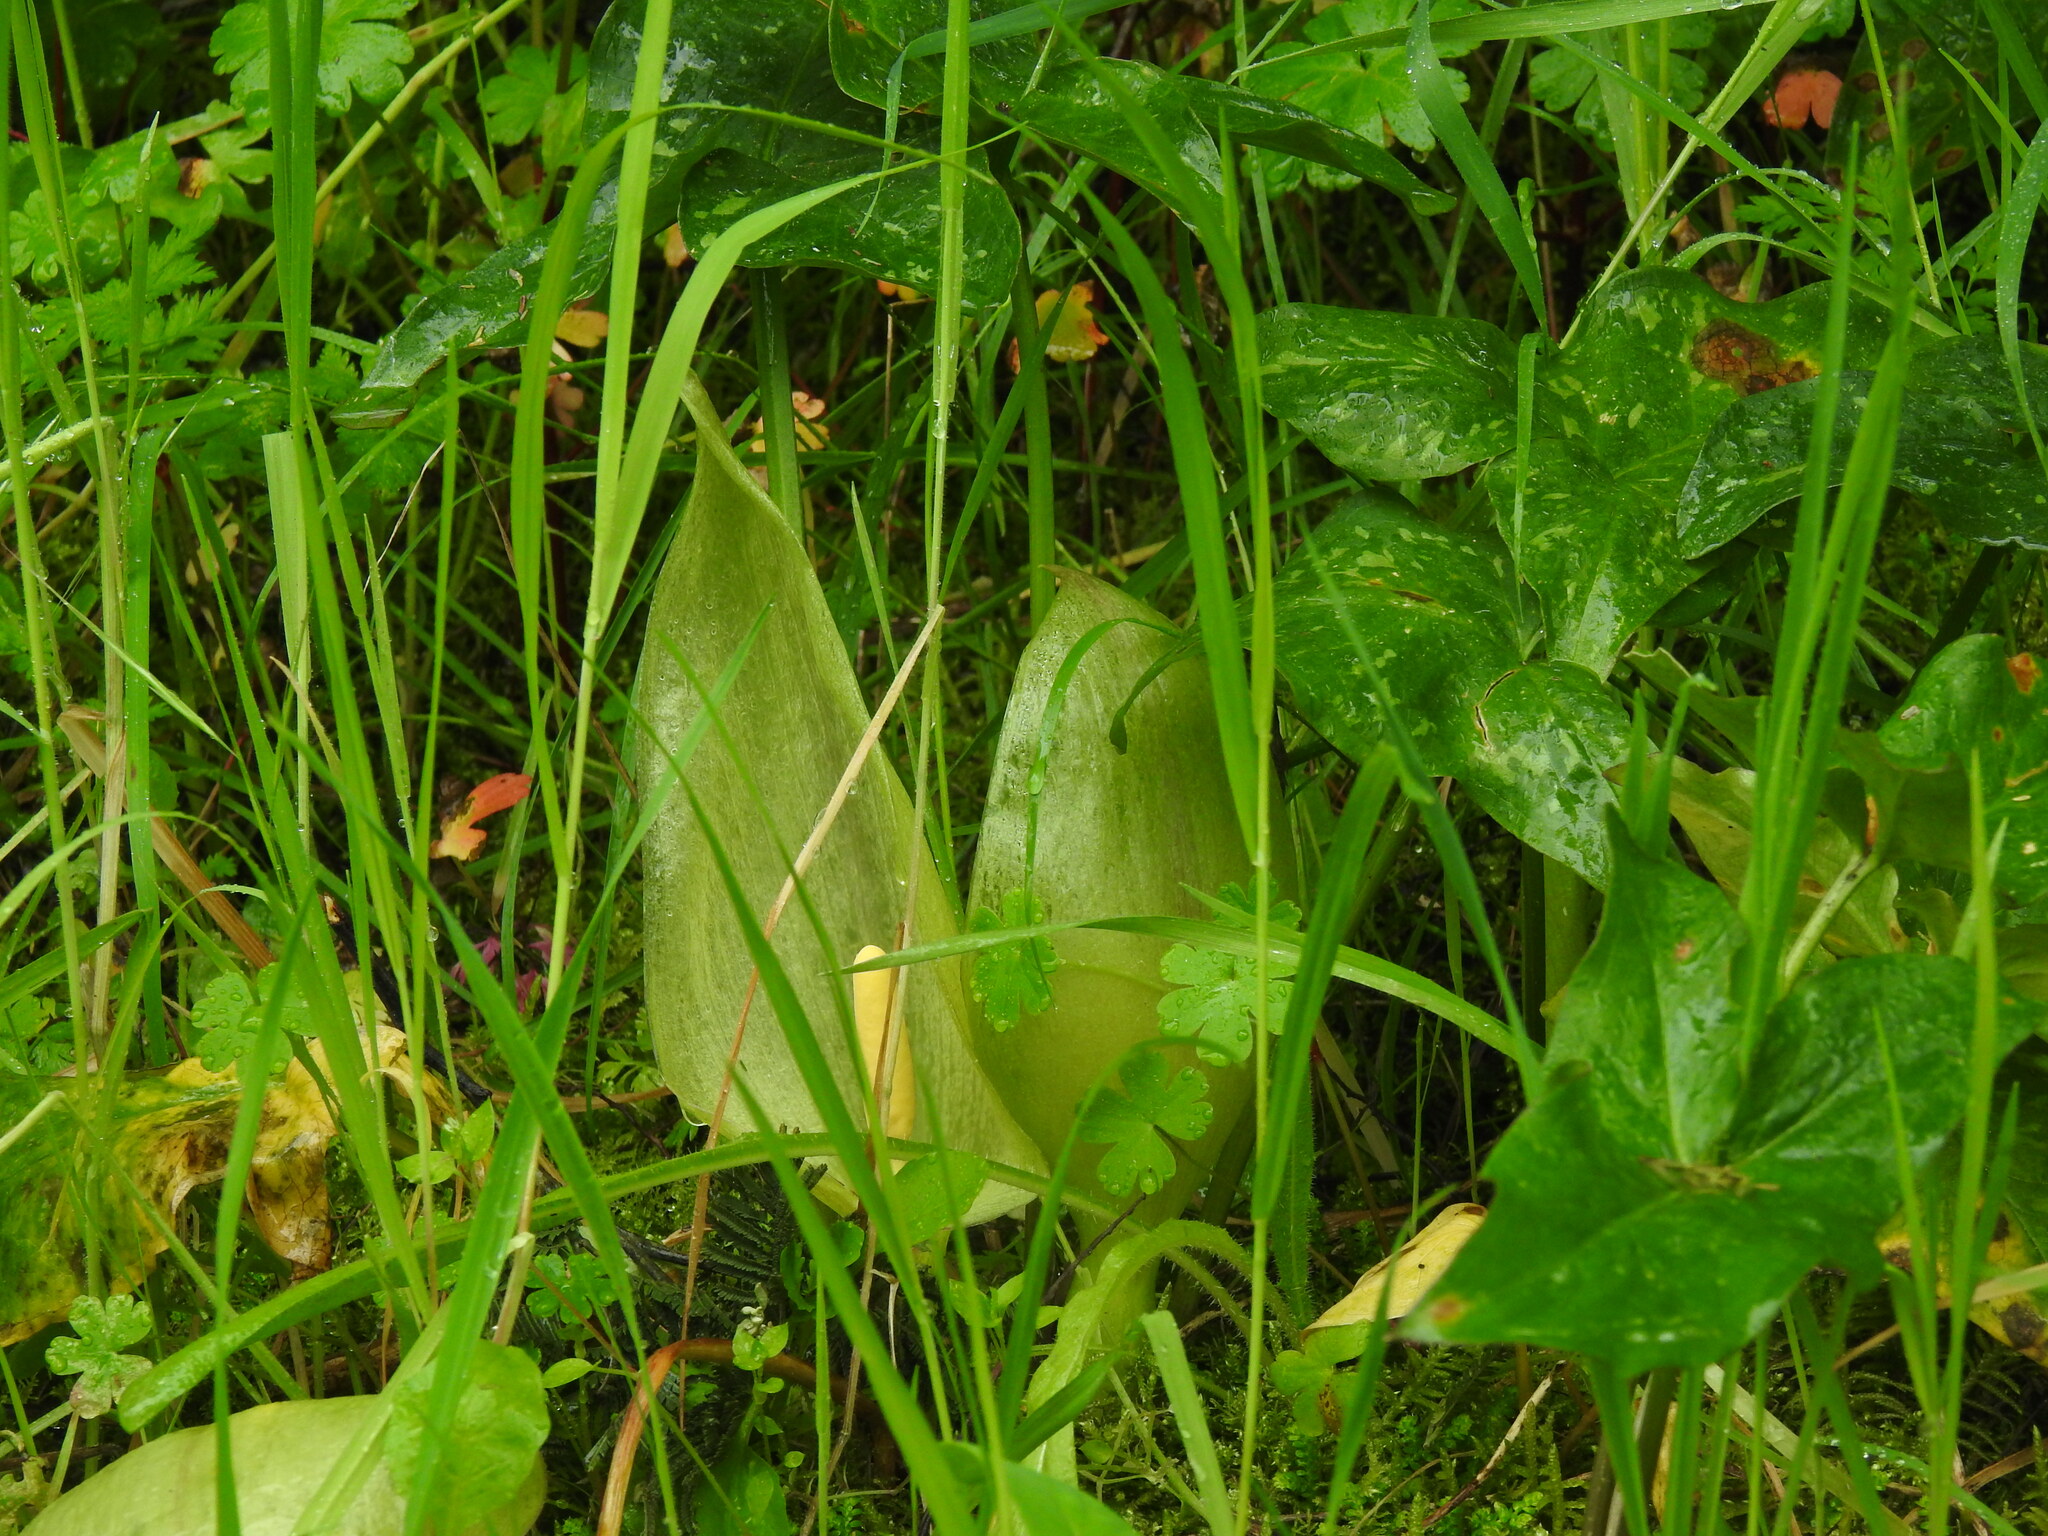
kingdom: Plantae
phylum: Tracheophyta
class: Liliopsida
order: Alismatales
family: Araceae
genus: Arum
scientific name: Arum italicum
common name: Italian lords-and-ladies
